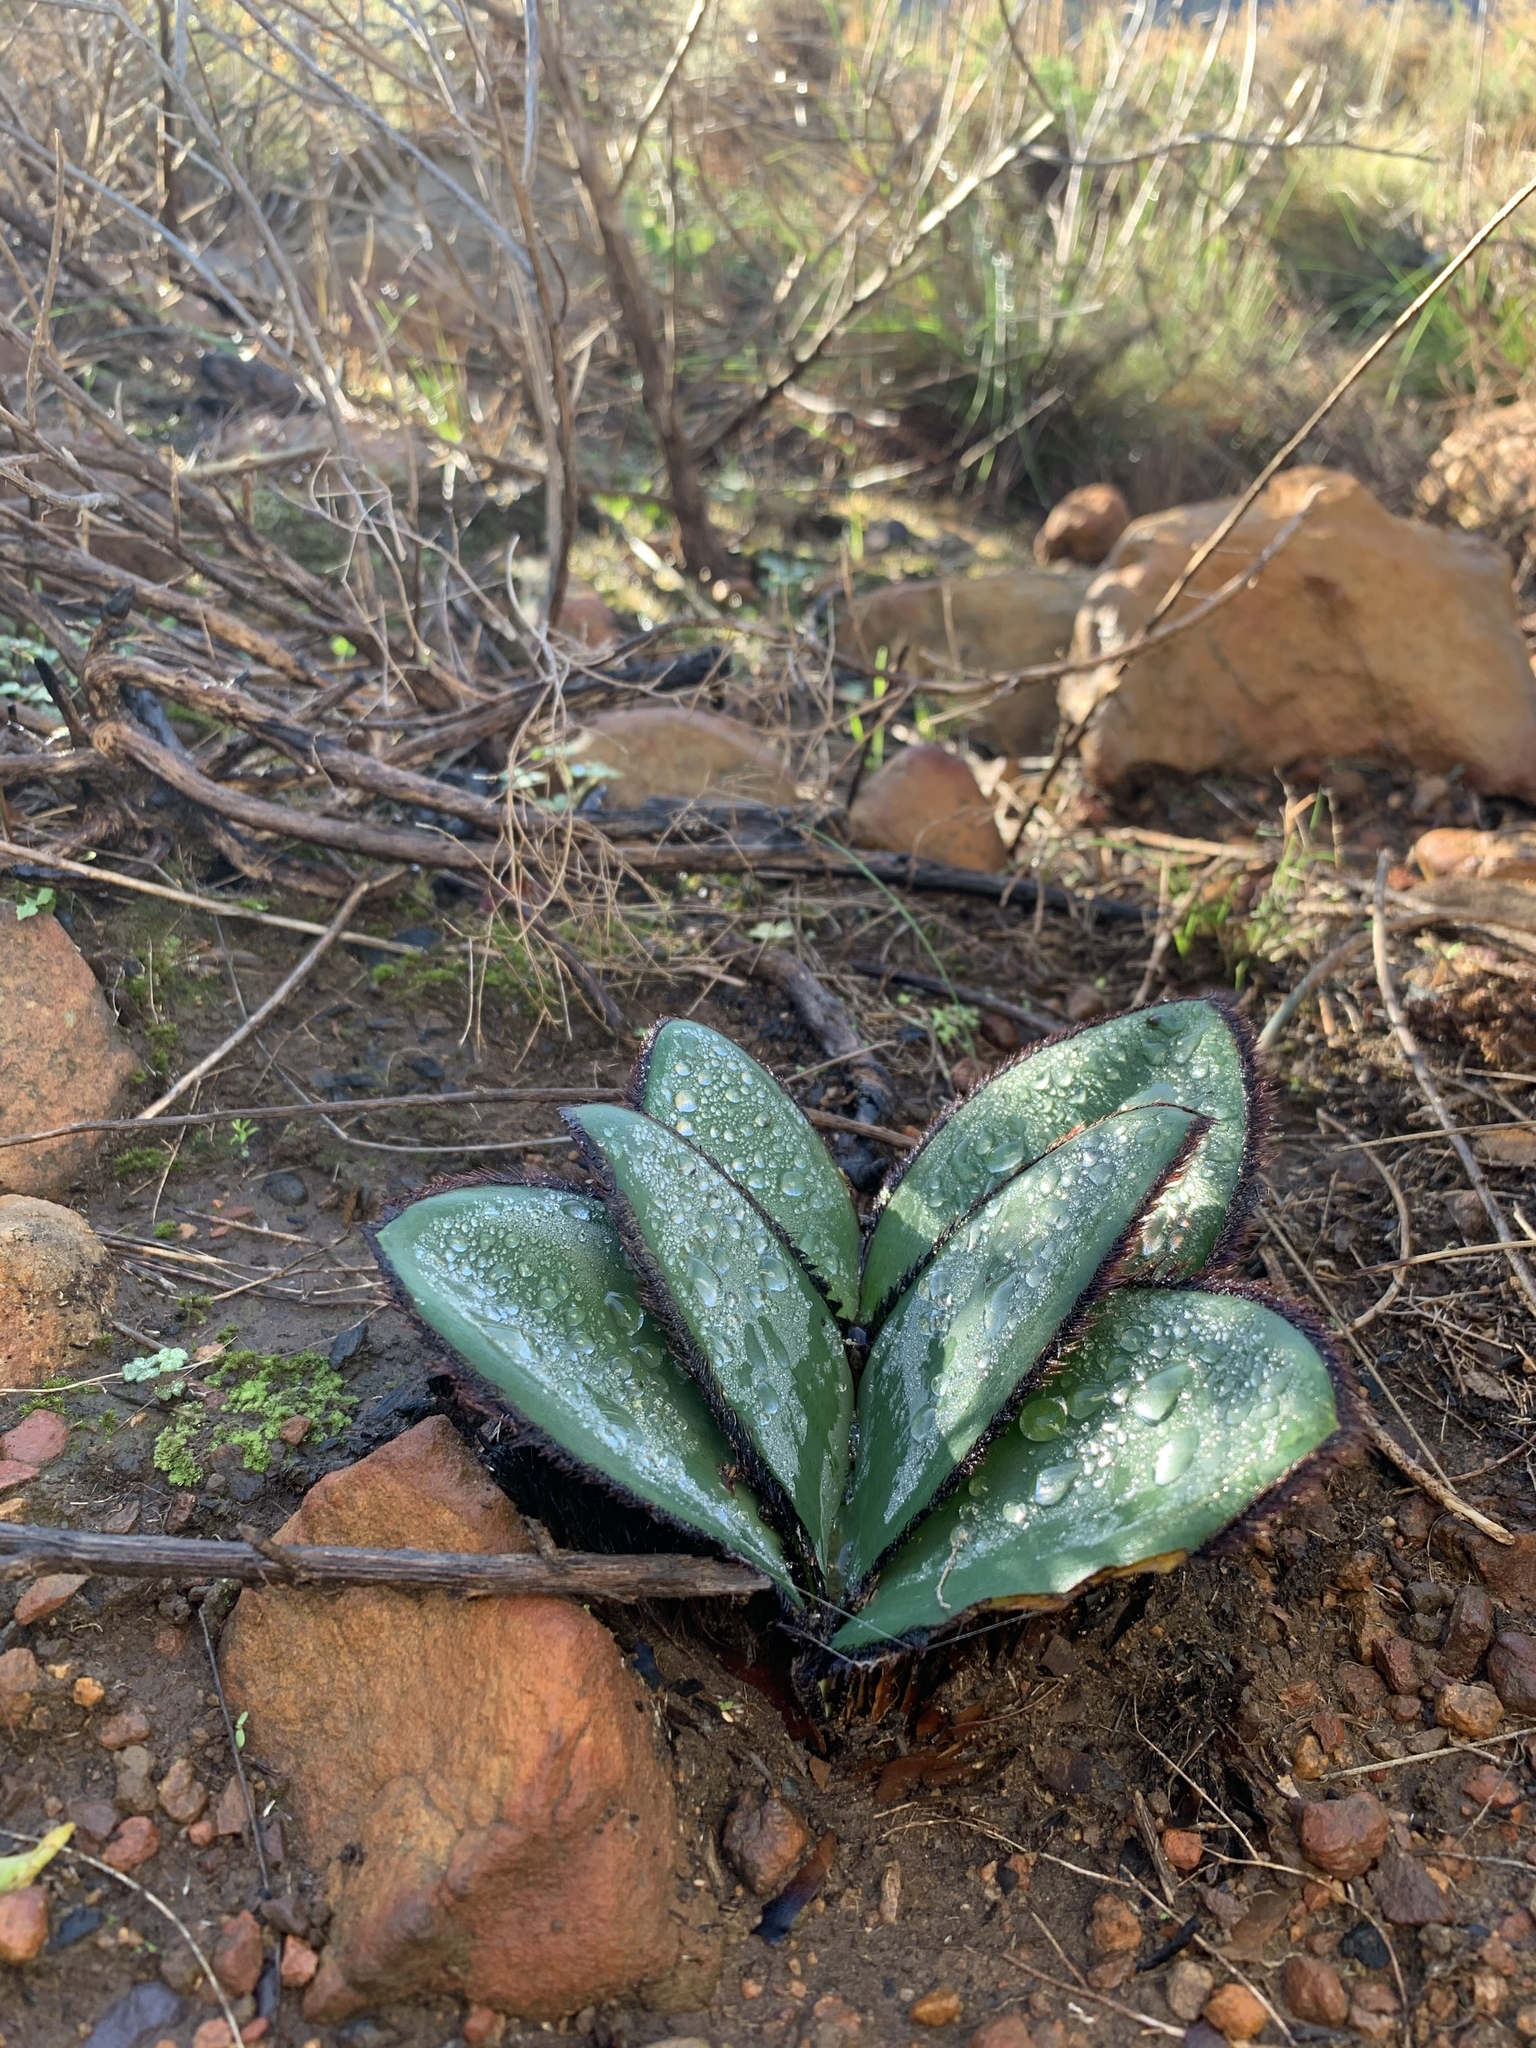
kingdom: Plantae
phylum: Tracheophyta
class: Liliopsida
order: Asparagales
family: Amaryllidaceae
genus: Crossyne
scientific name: Crossyne guttata
